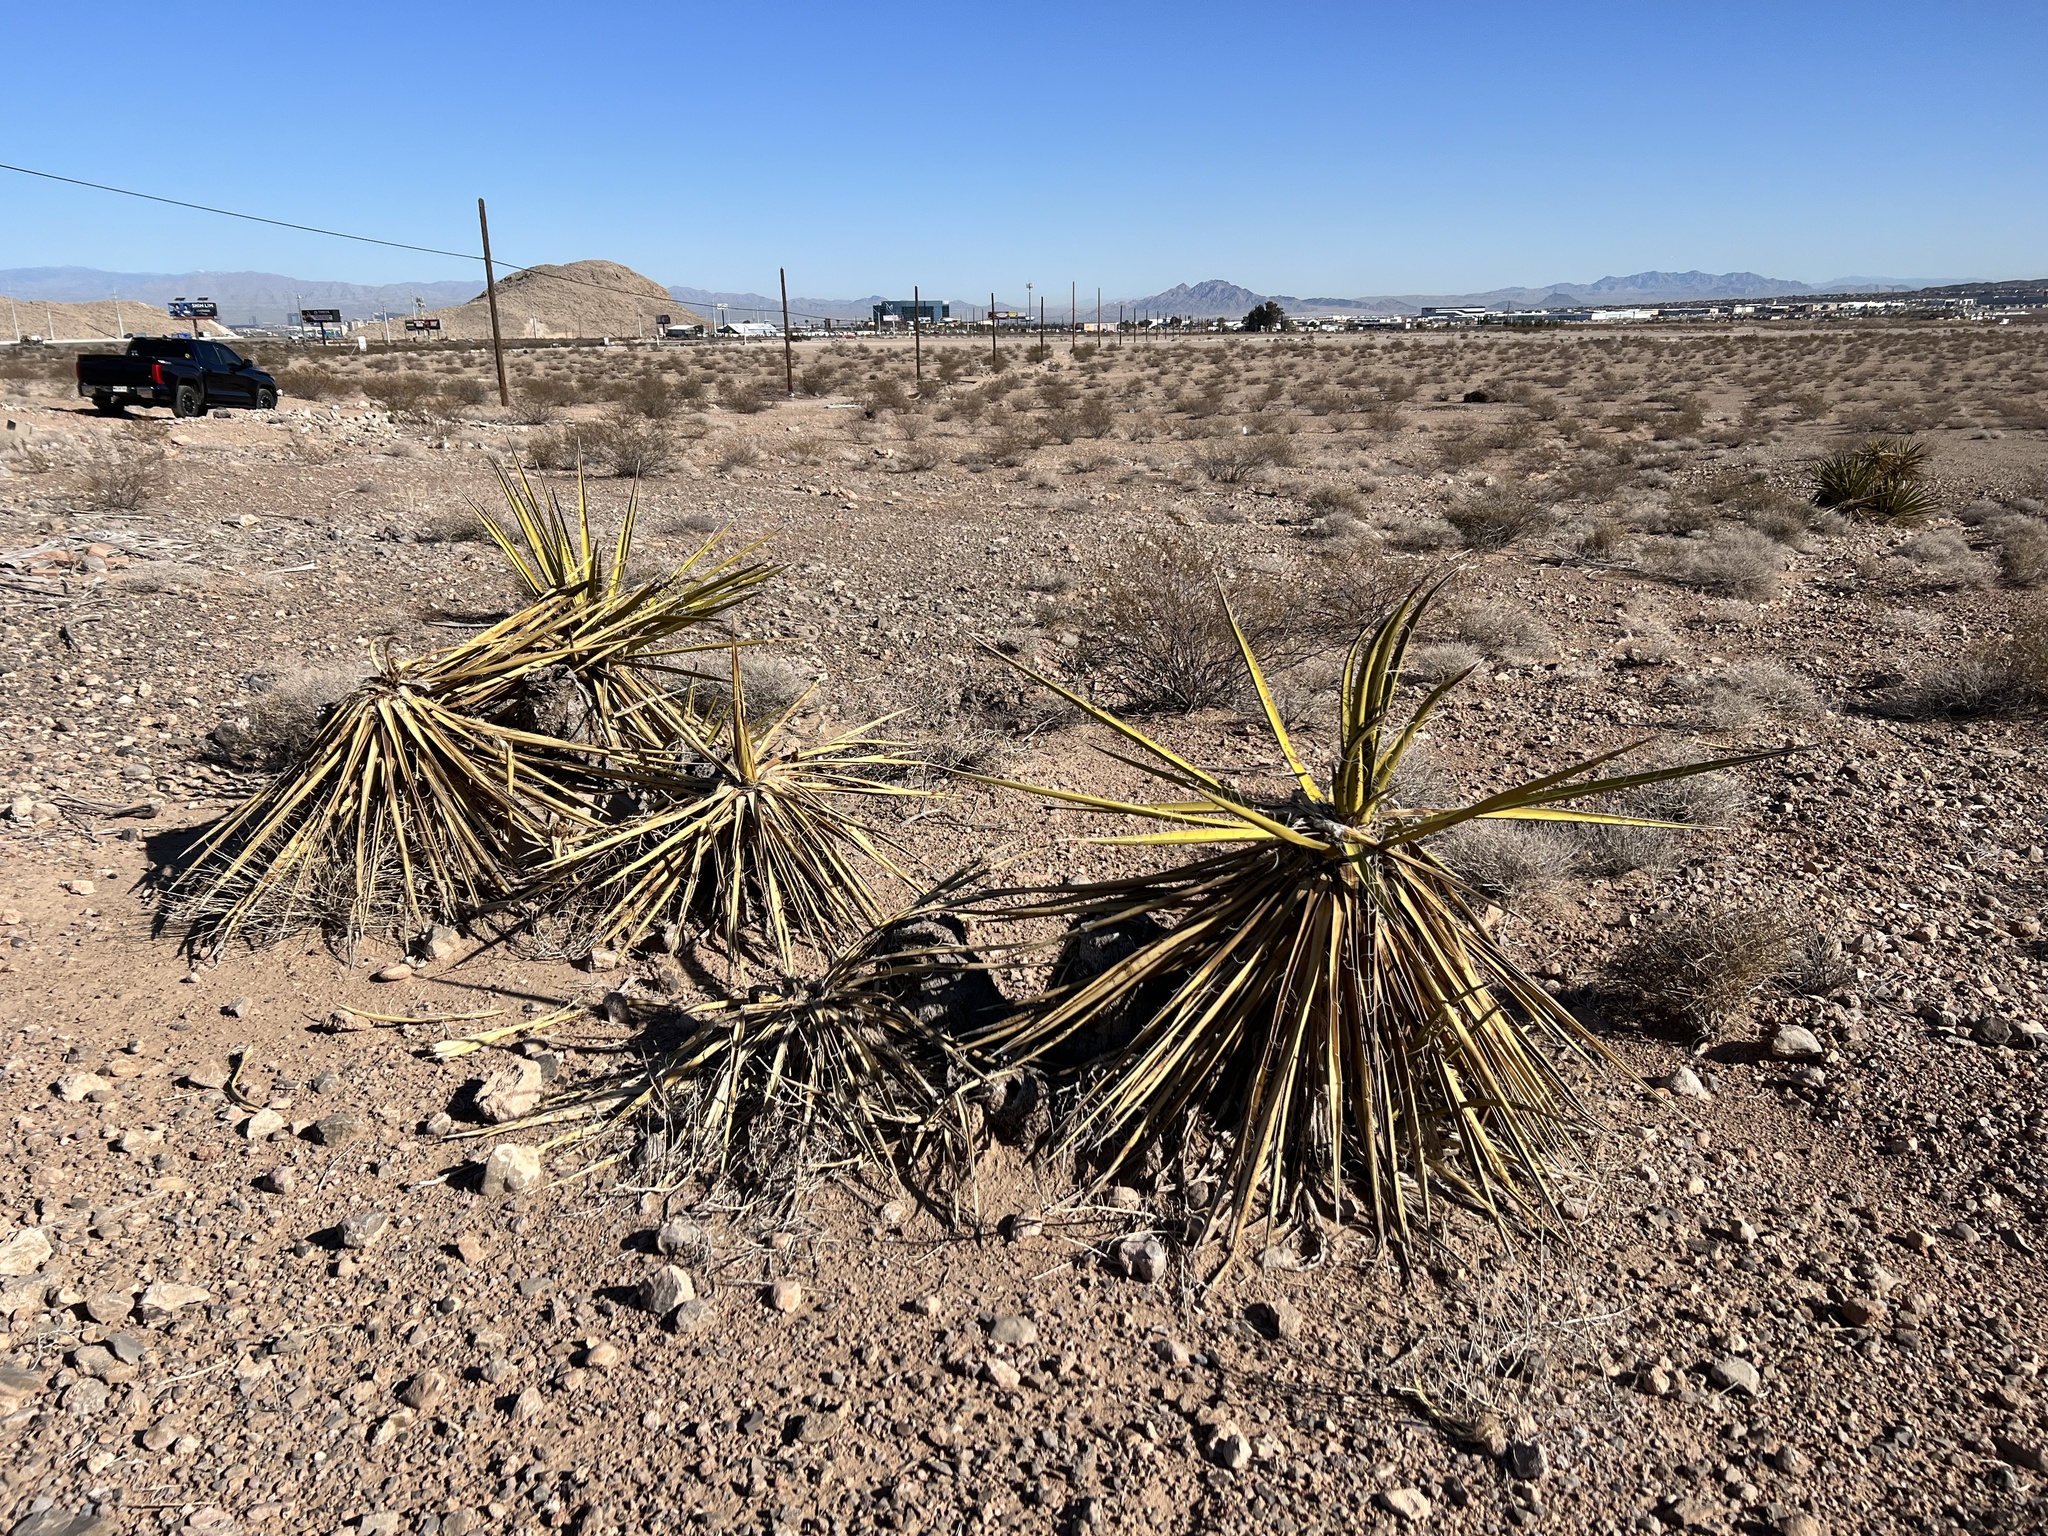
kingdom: Plantae
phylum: Tracheophyta
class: Liliopsida
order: Asparagales
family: Asparagaceae
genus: Yucca
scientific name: Yucca schidigera
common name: Mojave yucca
